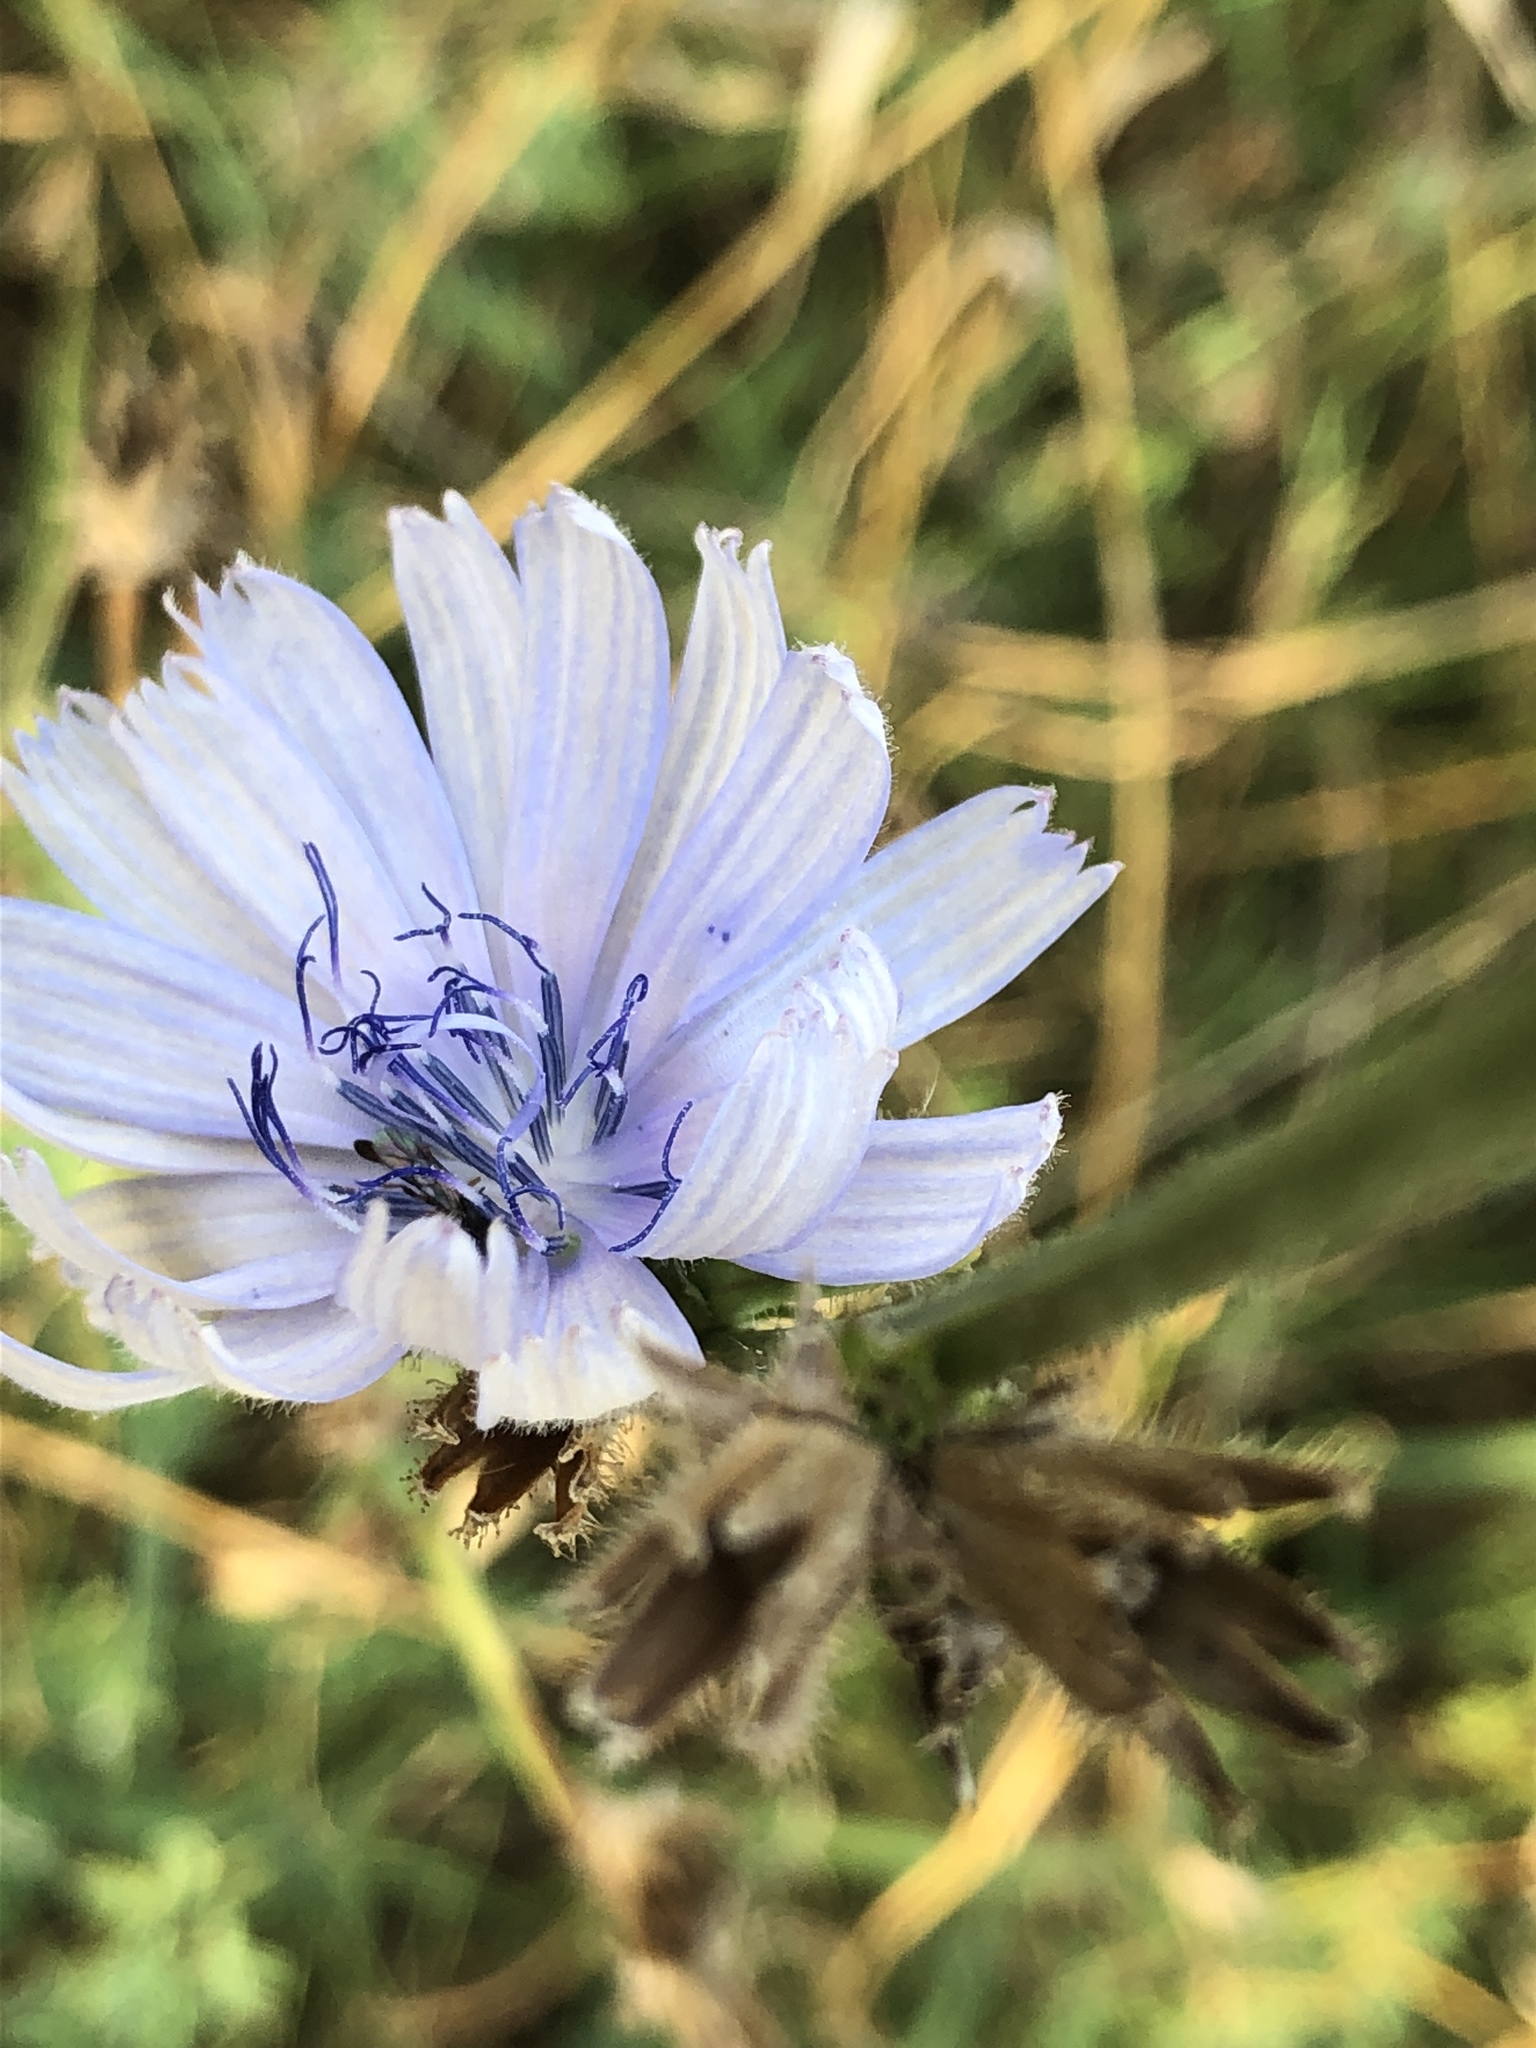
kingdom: Plantae
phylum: Tracheophyta
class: Magnoliopsida
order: Asterales
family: Asteraceae
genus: Cichorium
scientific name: Cichorium intybus
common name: Chicory
